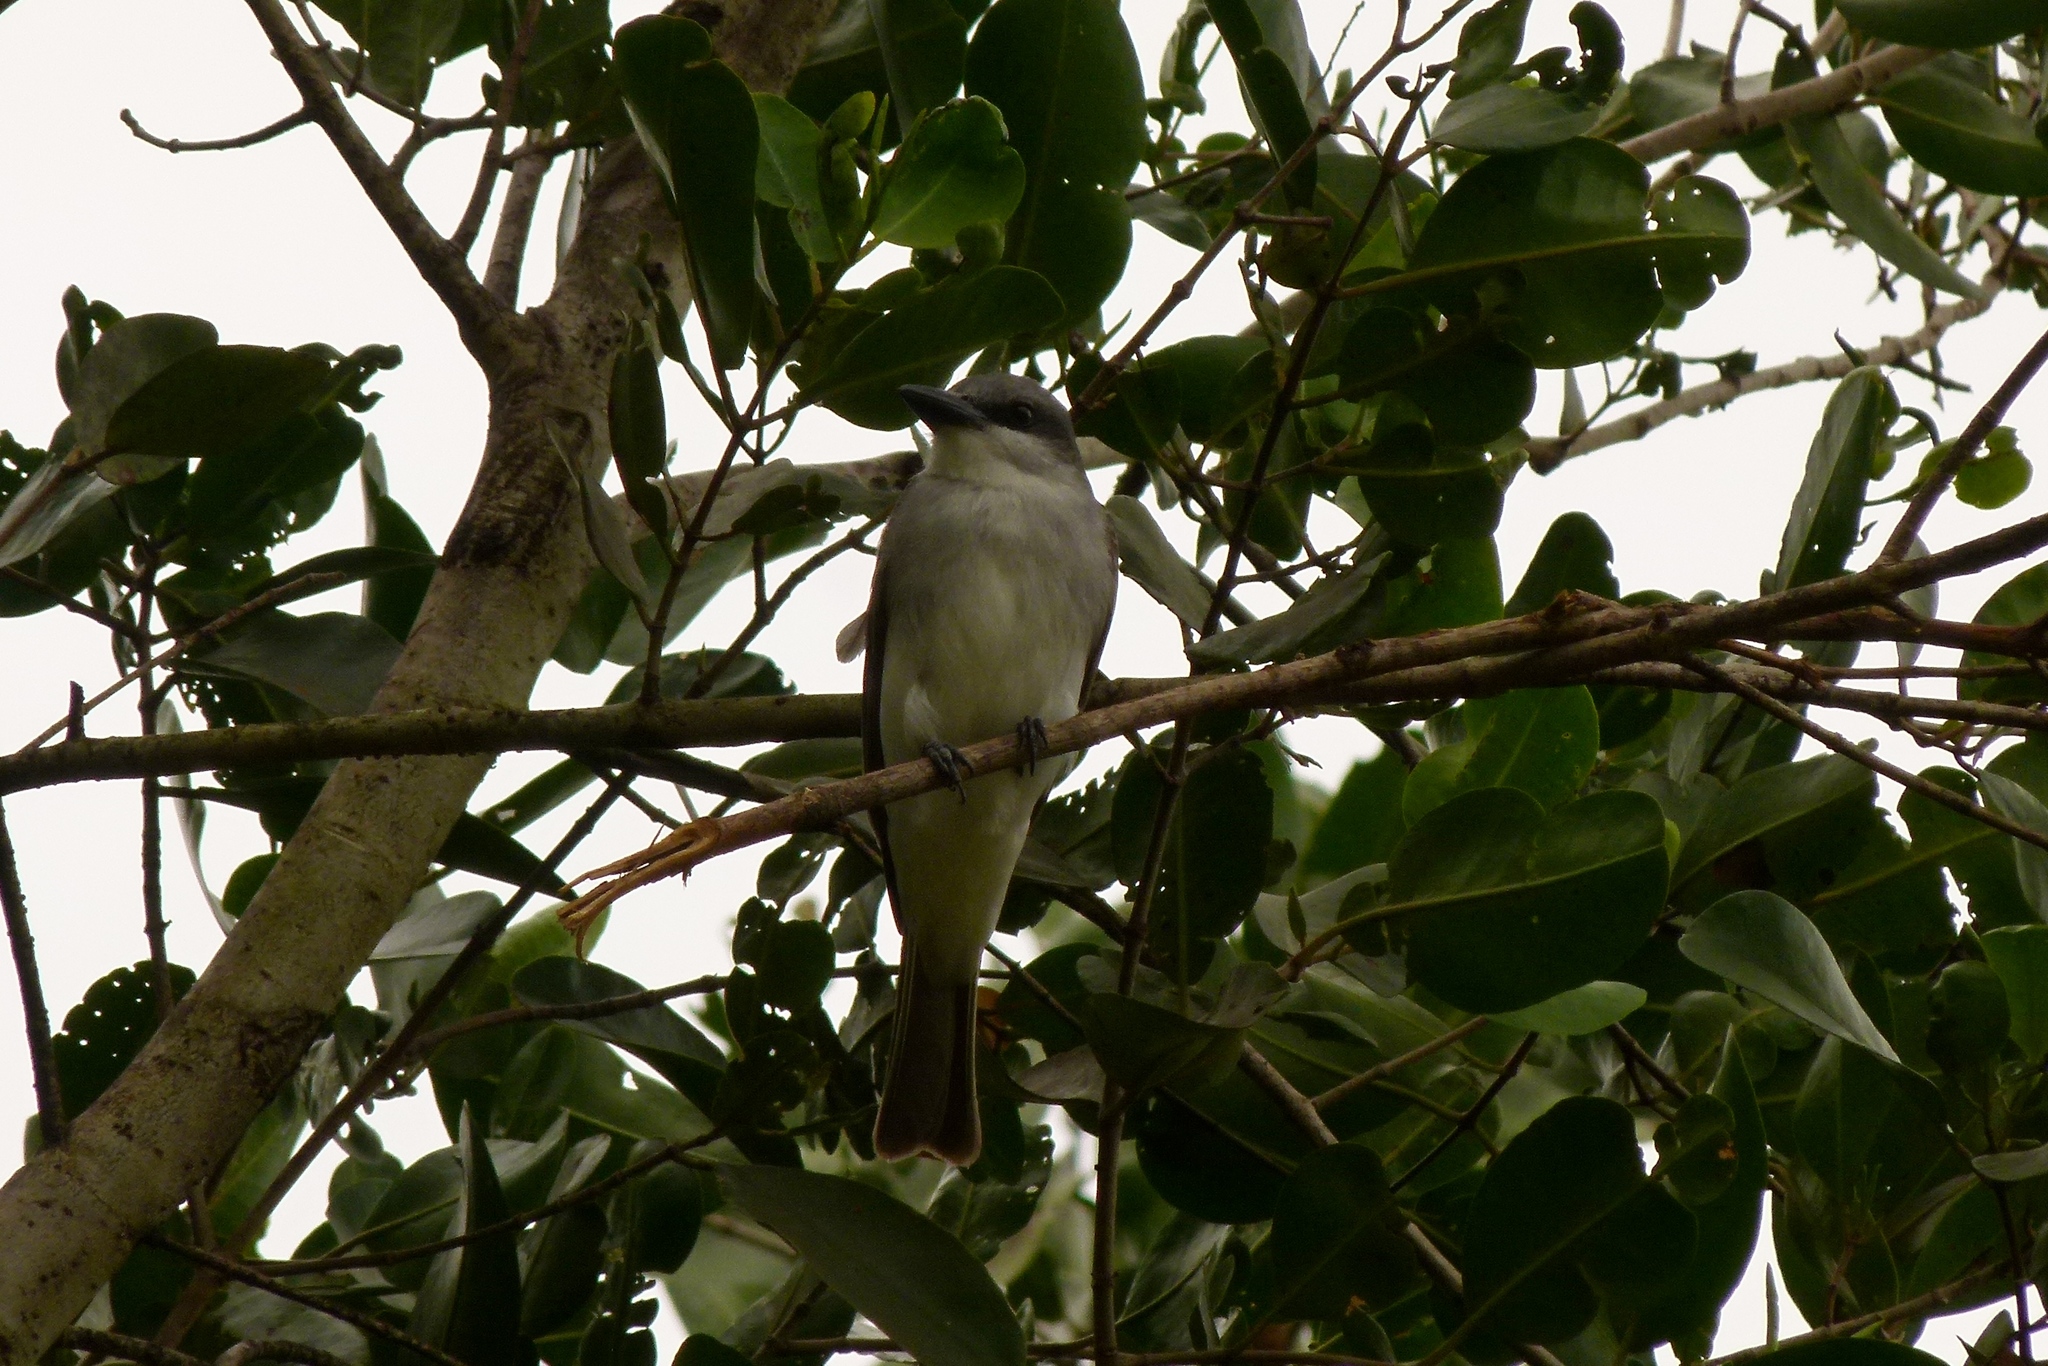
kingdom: Animalia
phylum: Chordata
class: Aves
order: Passeriformes
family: Tyrannidae
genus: Tyrannus
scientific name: Tyrannus dominicensis
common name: Gray kingbird
